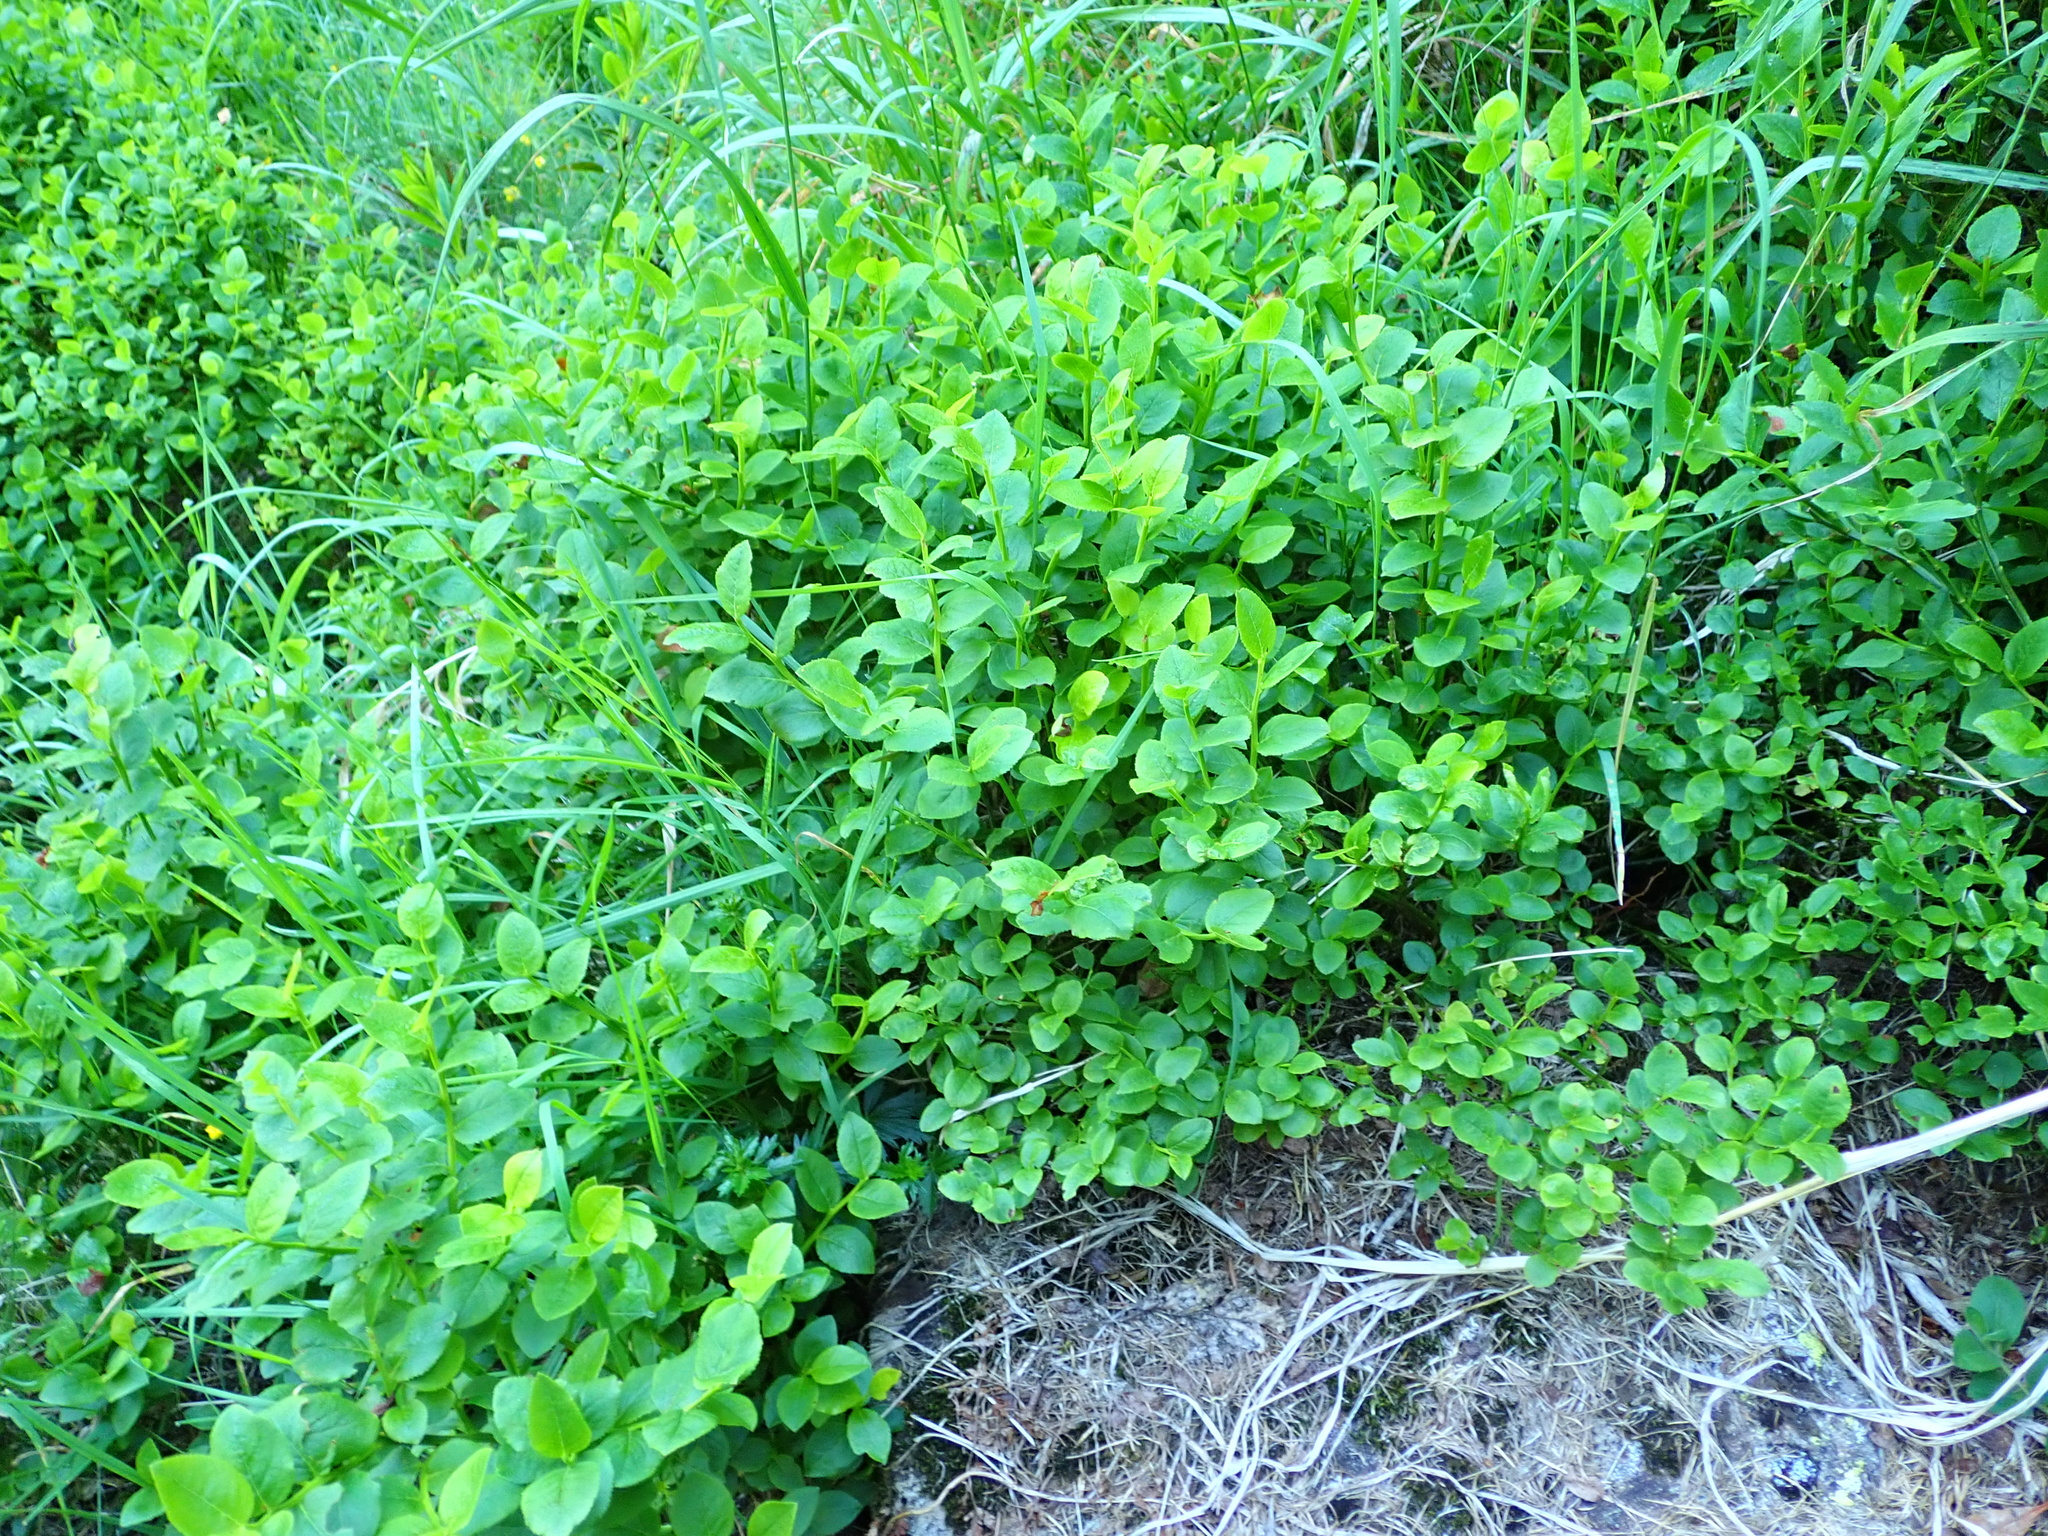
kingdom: Plantae
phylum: Tracheophyta
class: Magnoliopsida
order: Ericales
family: Ericaceae
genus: Vaccinium
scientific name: Vaccinium myrtillus
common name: Bilberry
